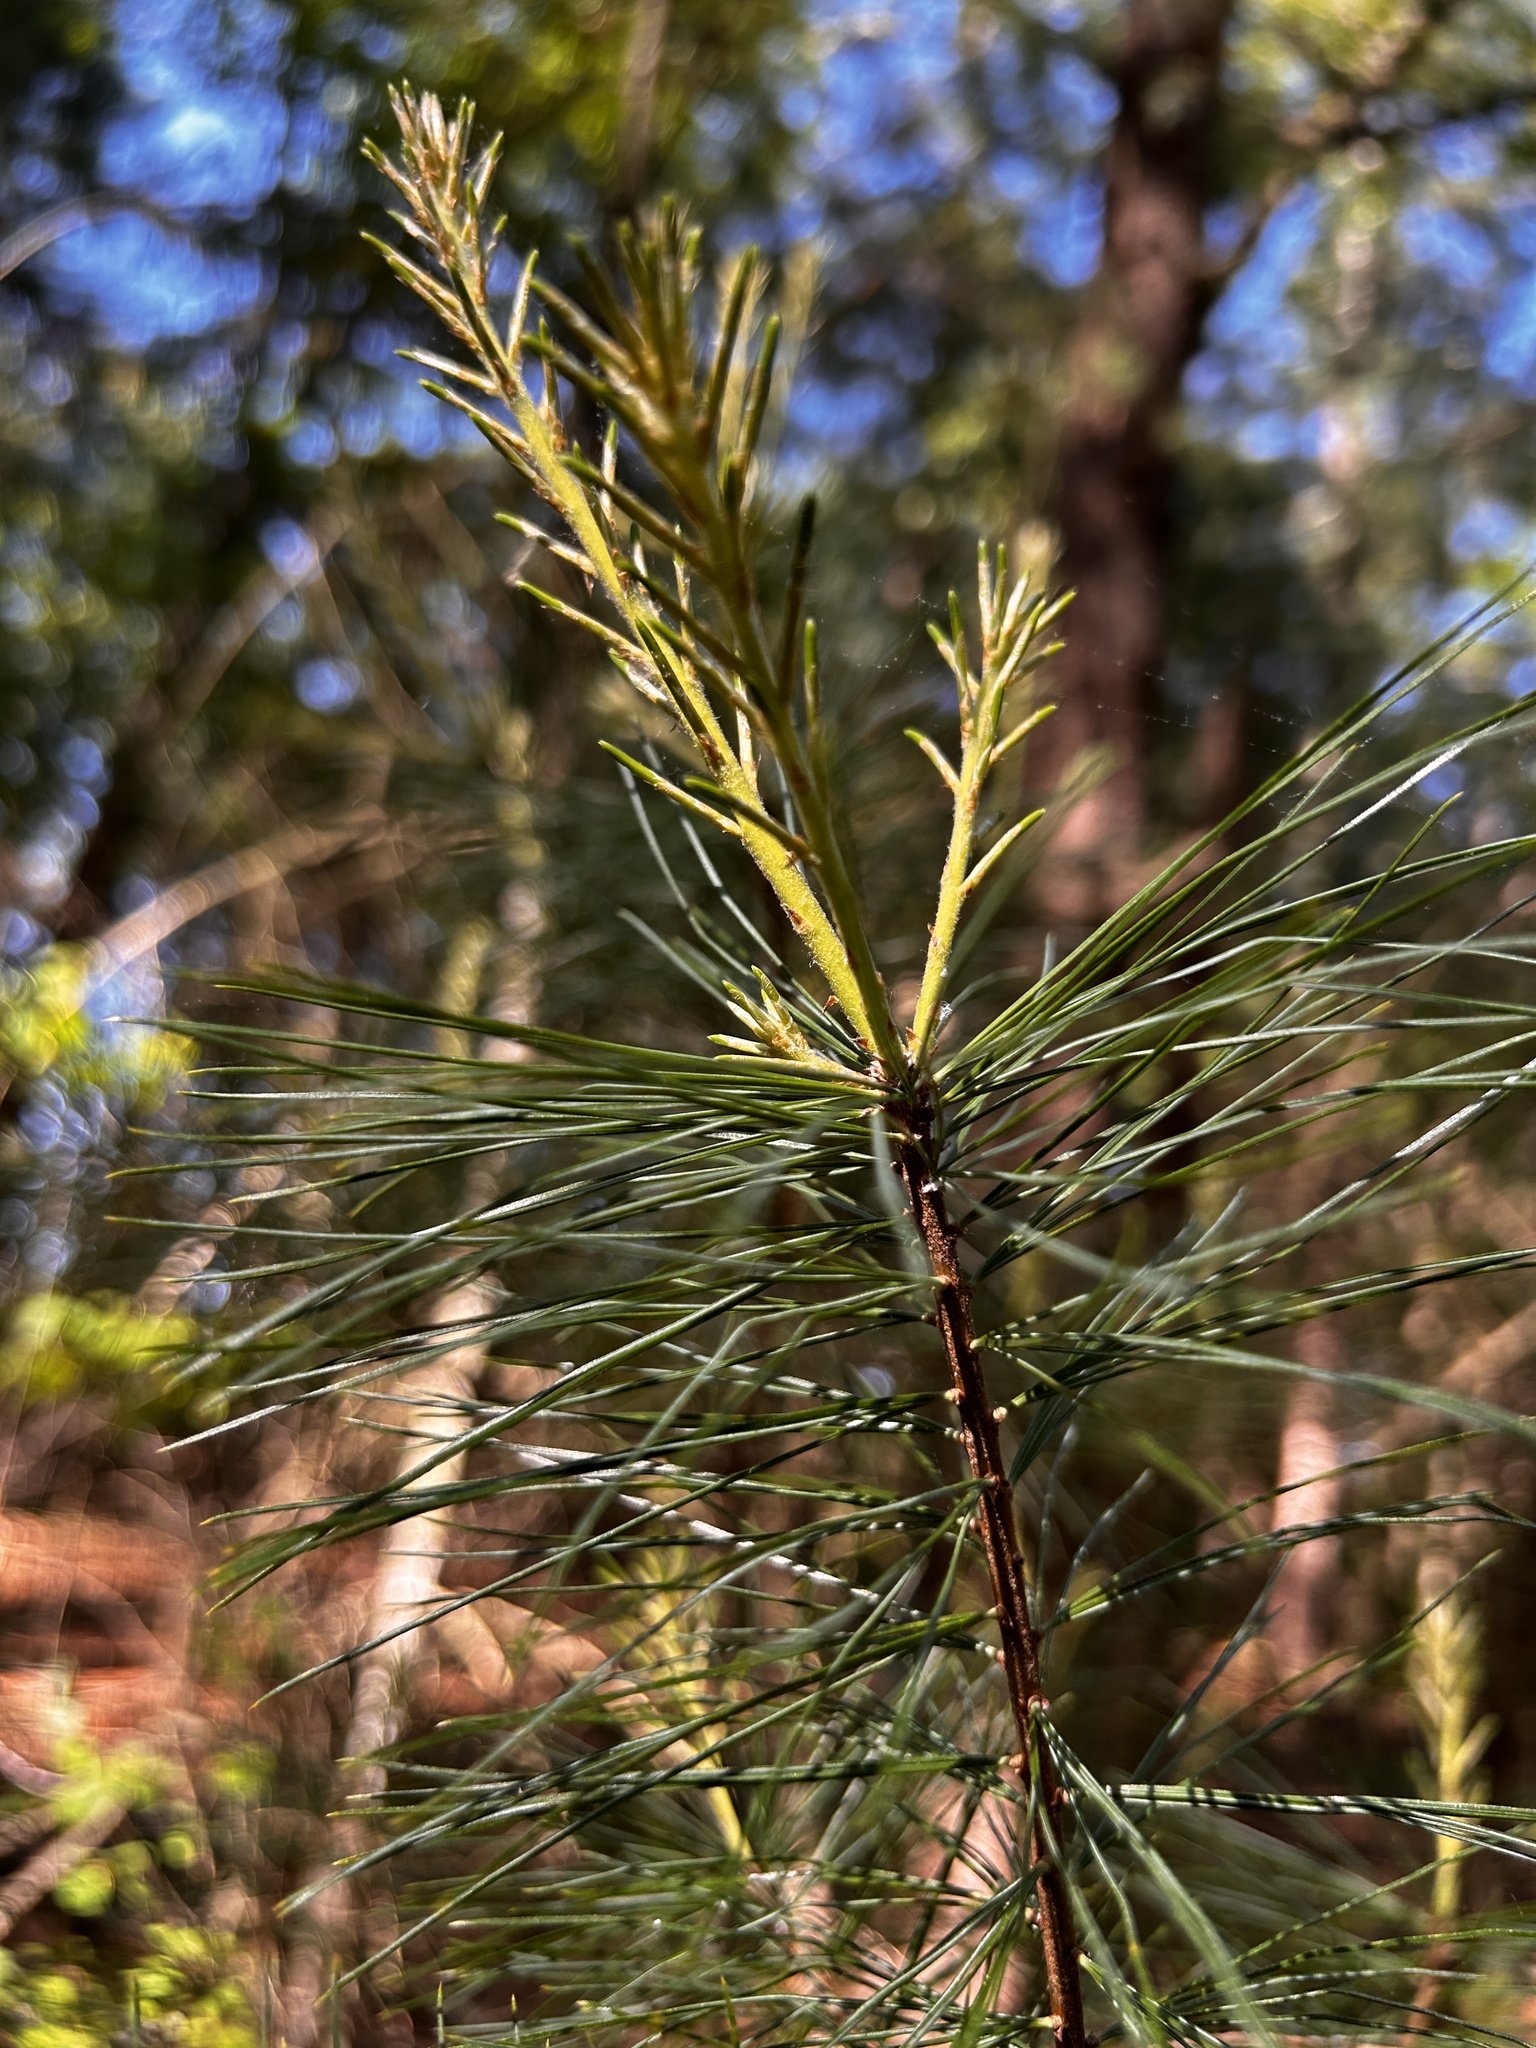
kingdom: Plantae
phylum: Tracheophyta
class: Pinopsida
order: Pinales
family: Pinaceae
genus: Pinus
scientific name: Pinus strobus
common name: Weymouth pine
